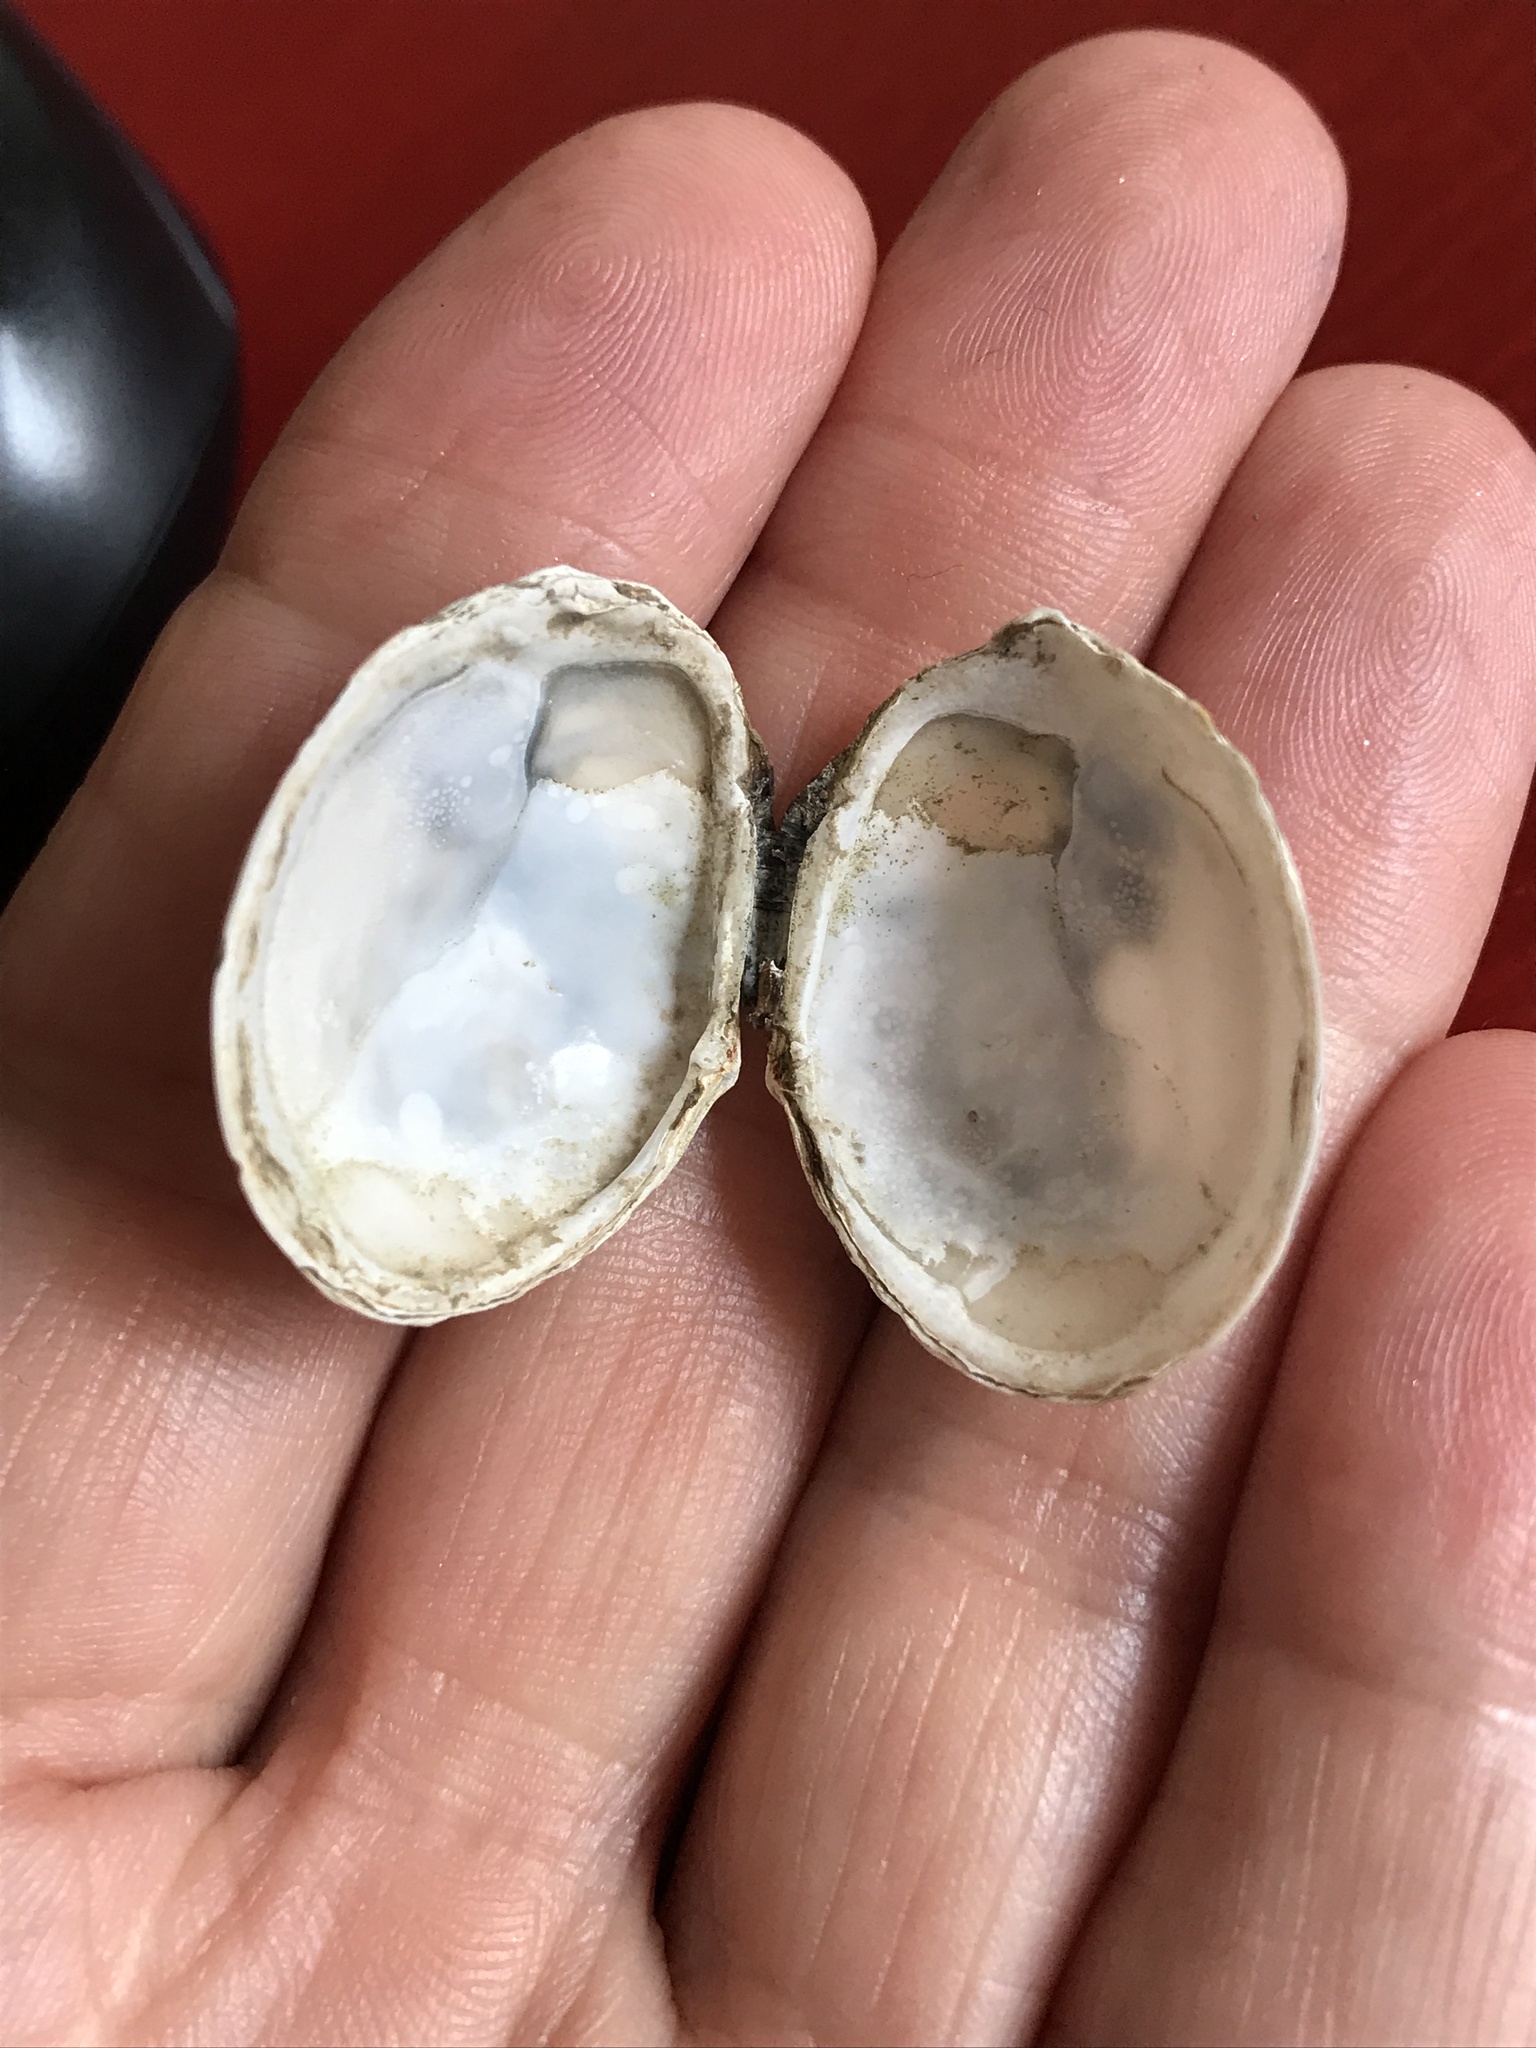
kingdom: Animalia
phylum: Mollusca
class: Bivalvia
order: Cardiida
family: Tellinidae
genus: Macoma
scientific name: Macoma inquinata
